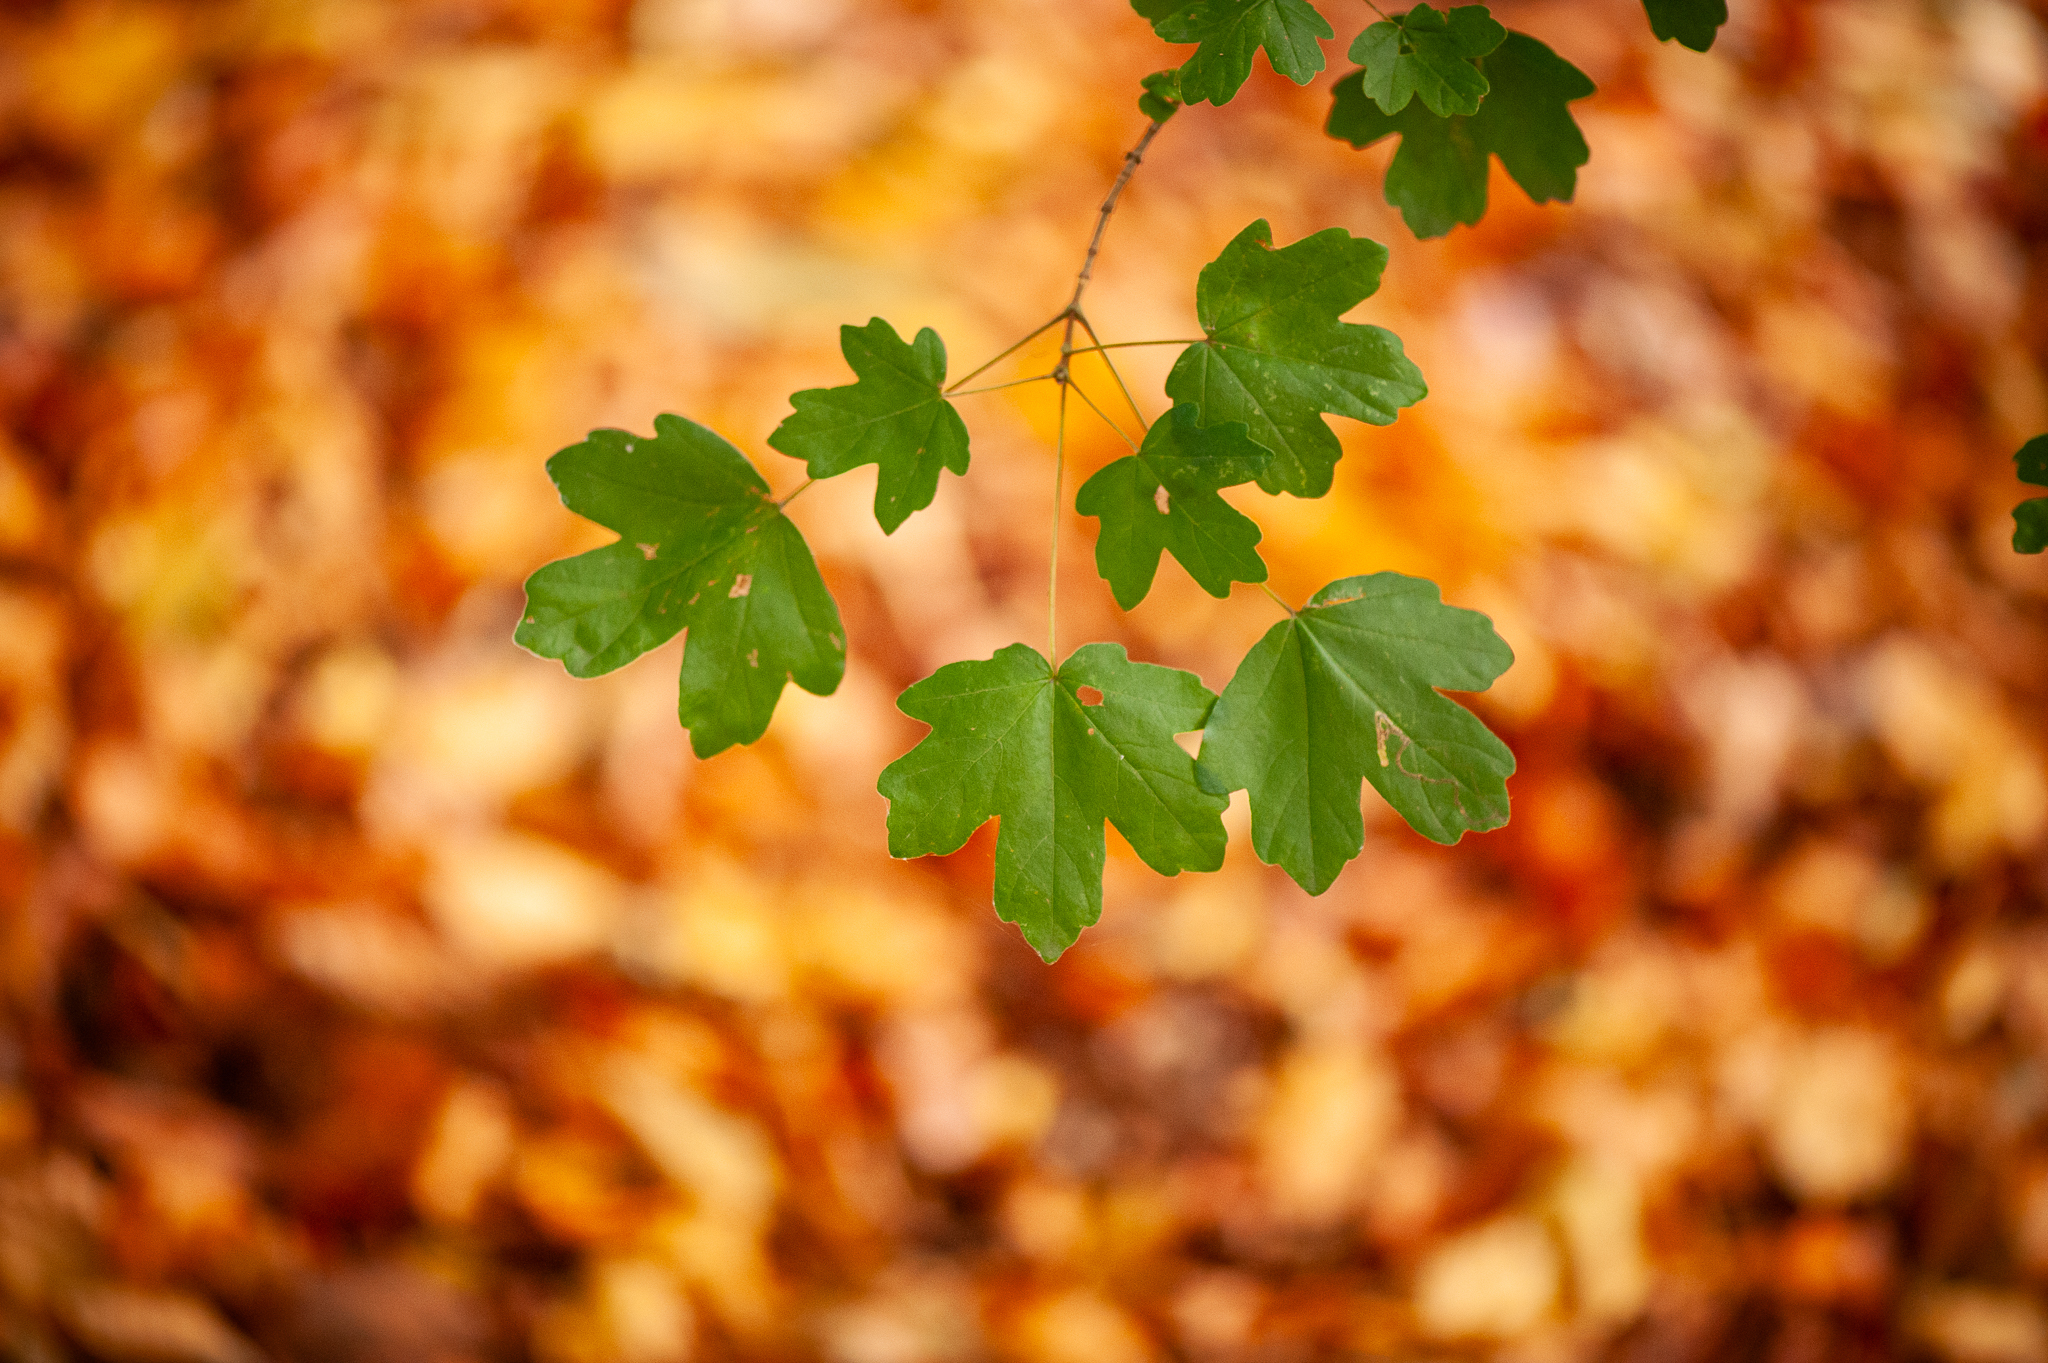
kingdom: Plantae
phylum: Tracheophyta
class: Magnoliopsida
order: Sapindales
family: Sapindaceae
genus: Acer
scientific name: Acer campestre
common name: Field maple
